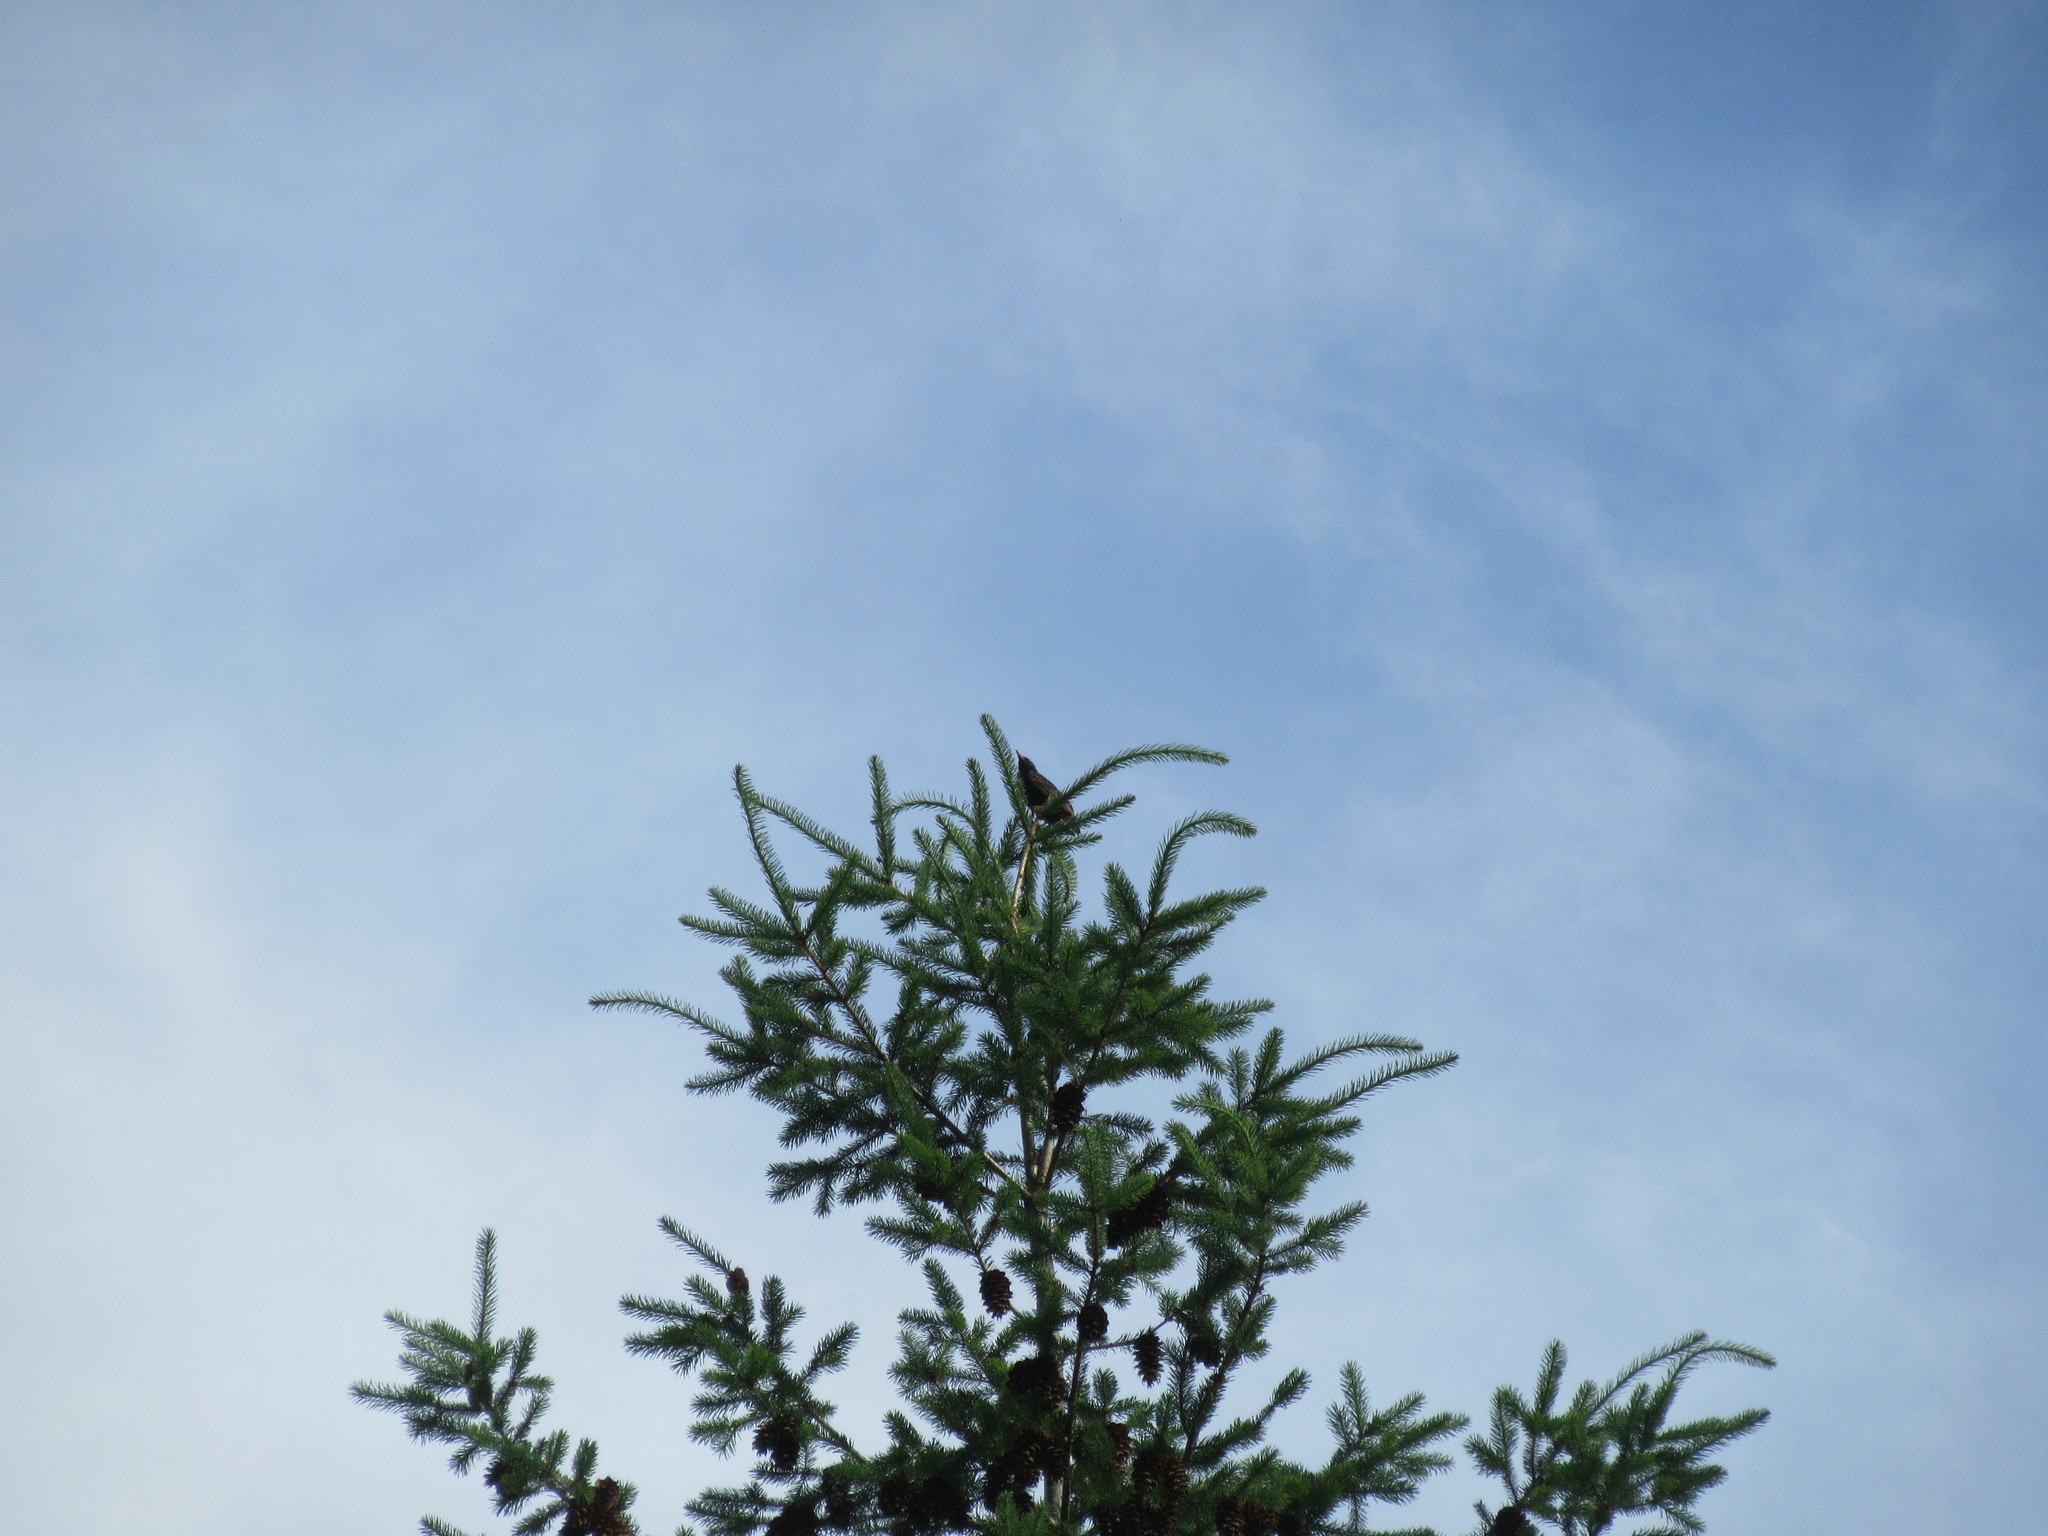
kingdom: Animalia
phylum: Chordata
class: Aves
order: Passeriformes
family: Sturnidae
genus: Sturnus
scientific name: Sturnus vulgaris
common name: Common starling
